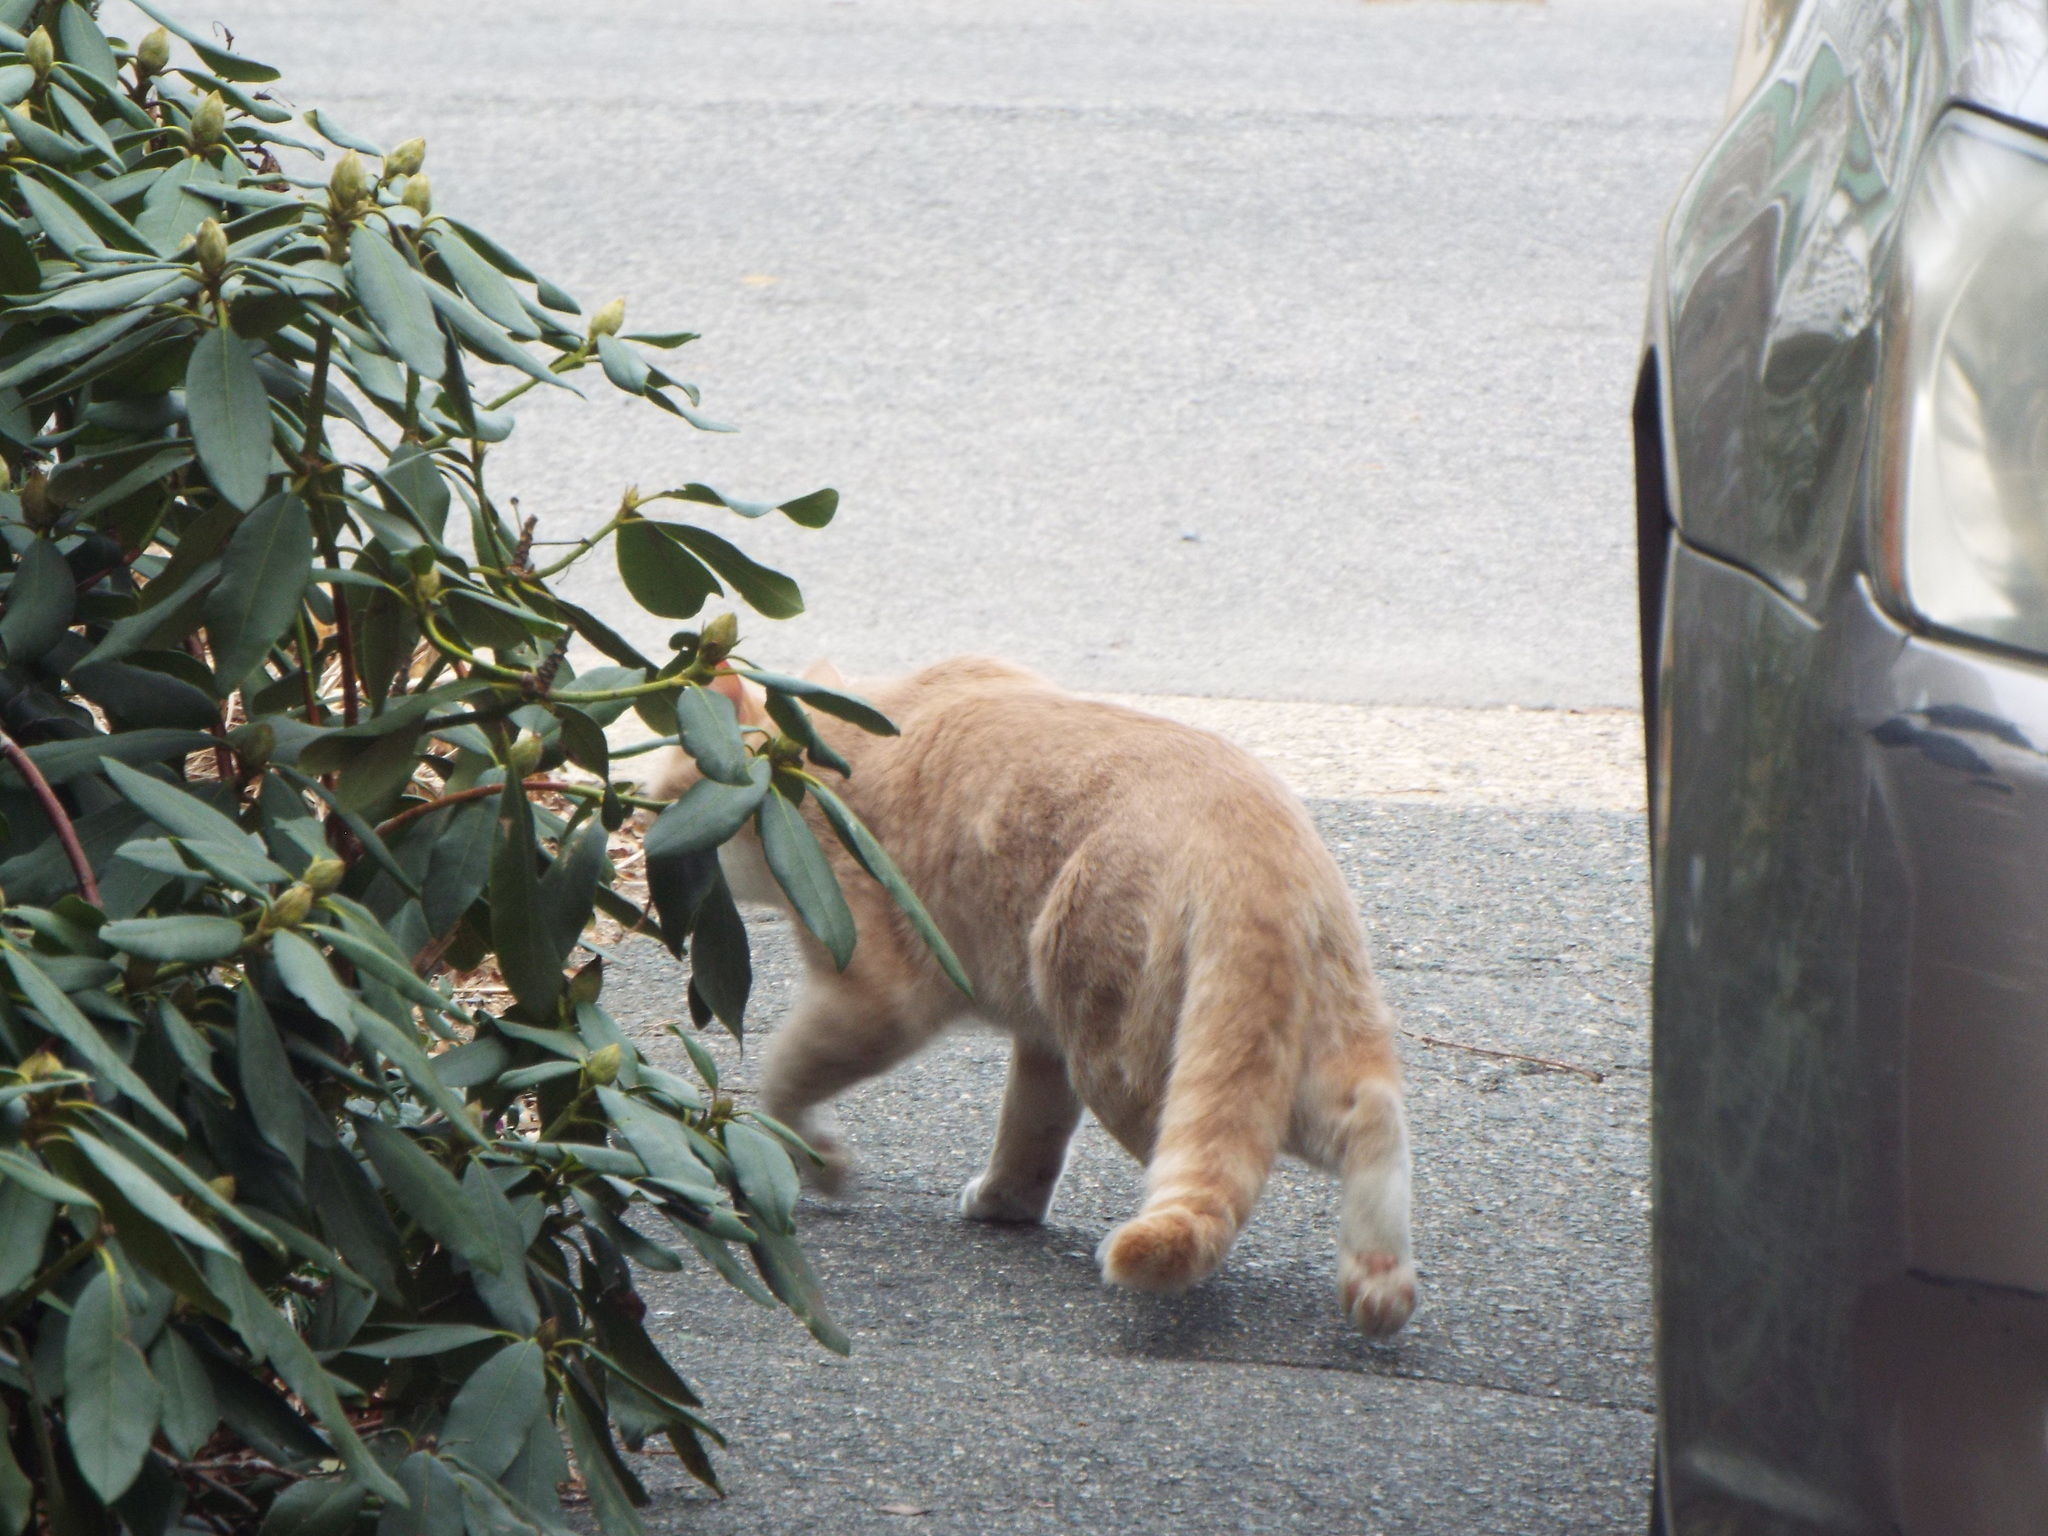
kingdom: Animalia
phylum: Chordata
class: Mammalia
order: Carnivora
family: Felidae
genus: Felis
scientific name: Felis catus
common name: Domestic cat
